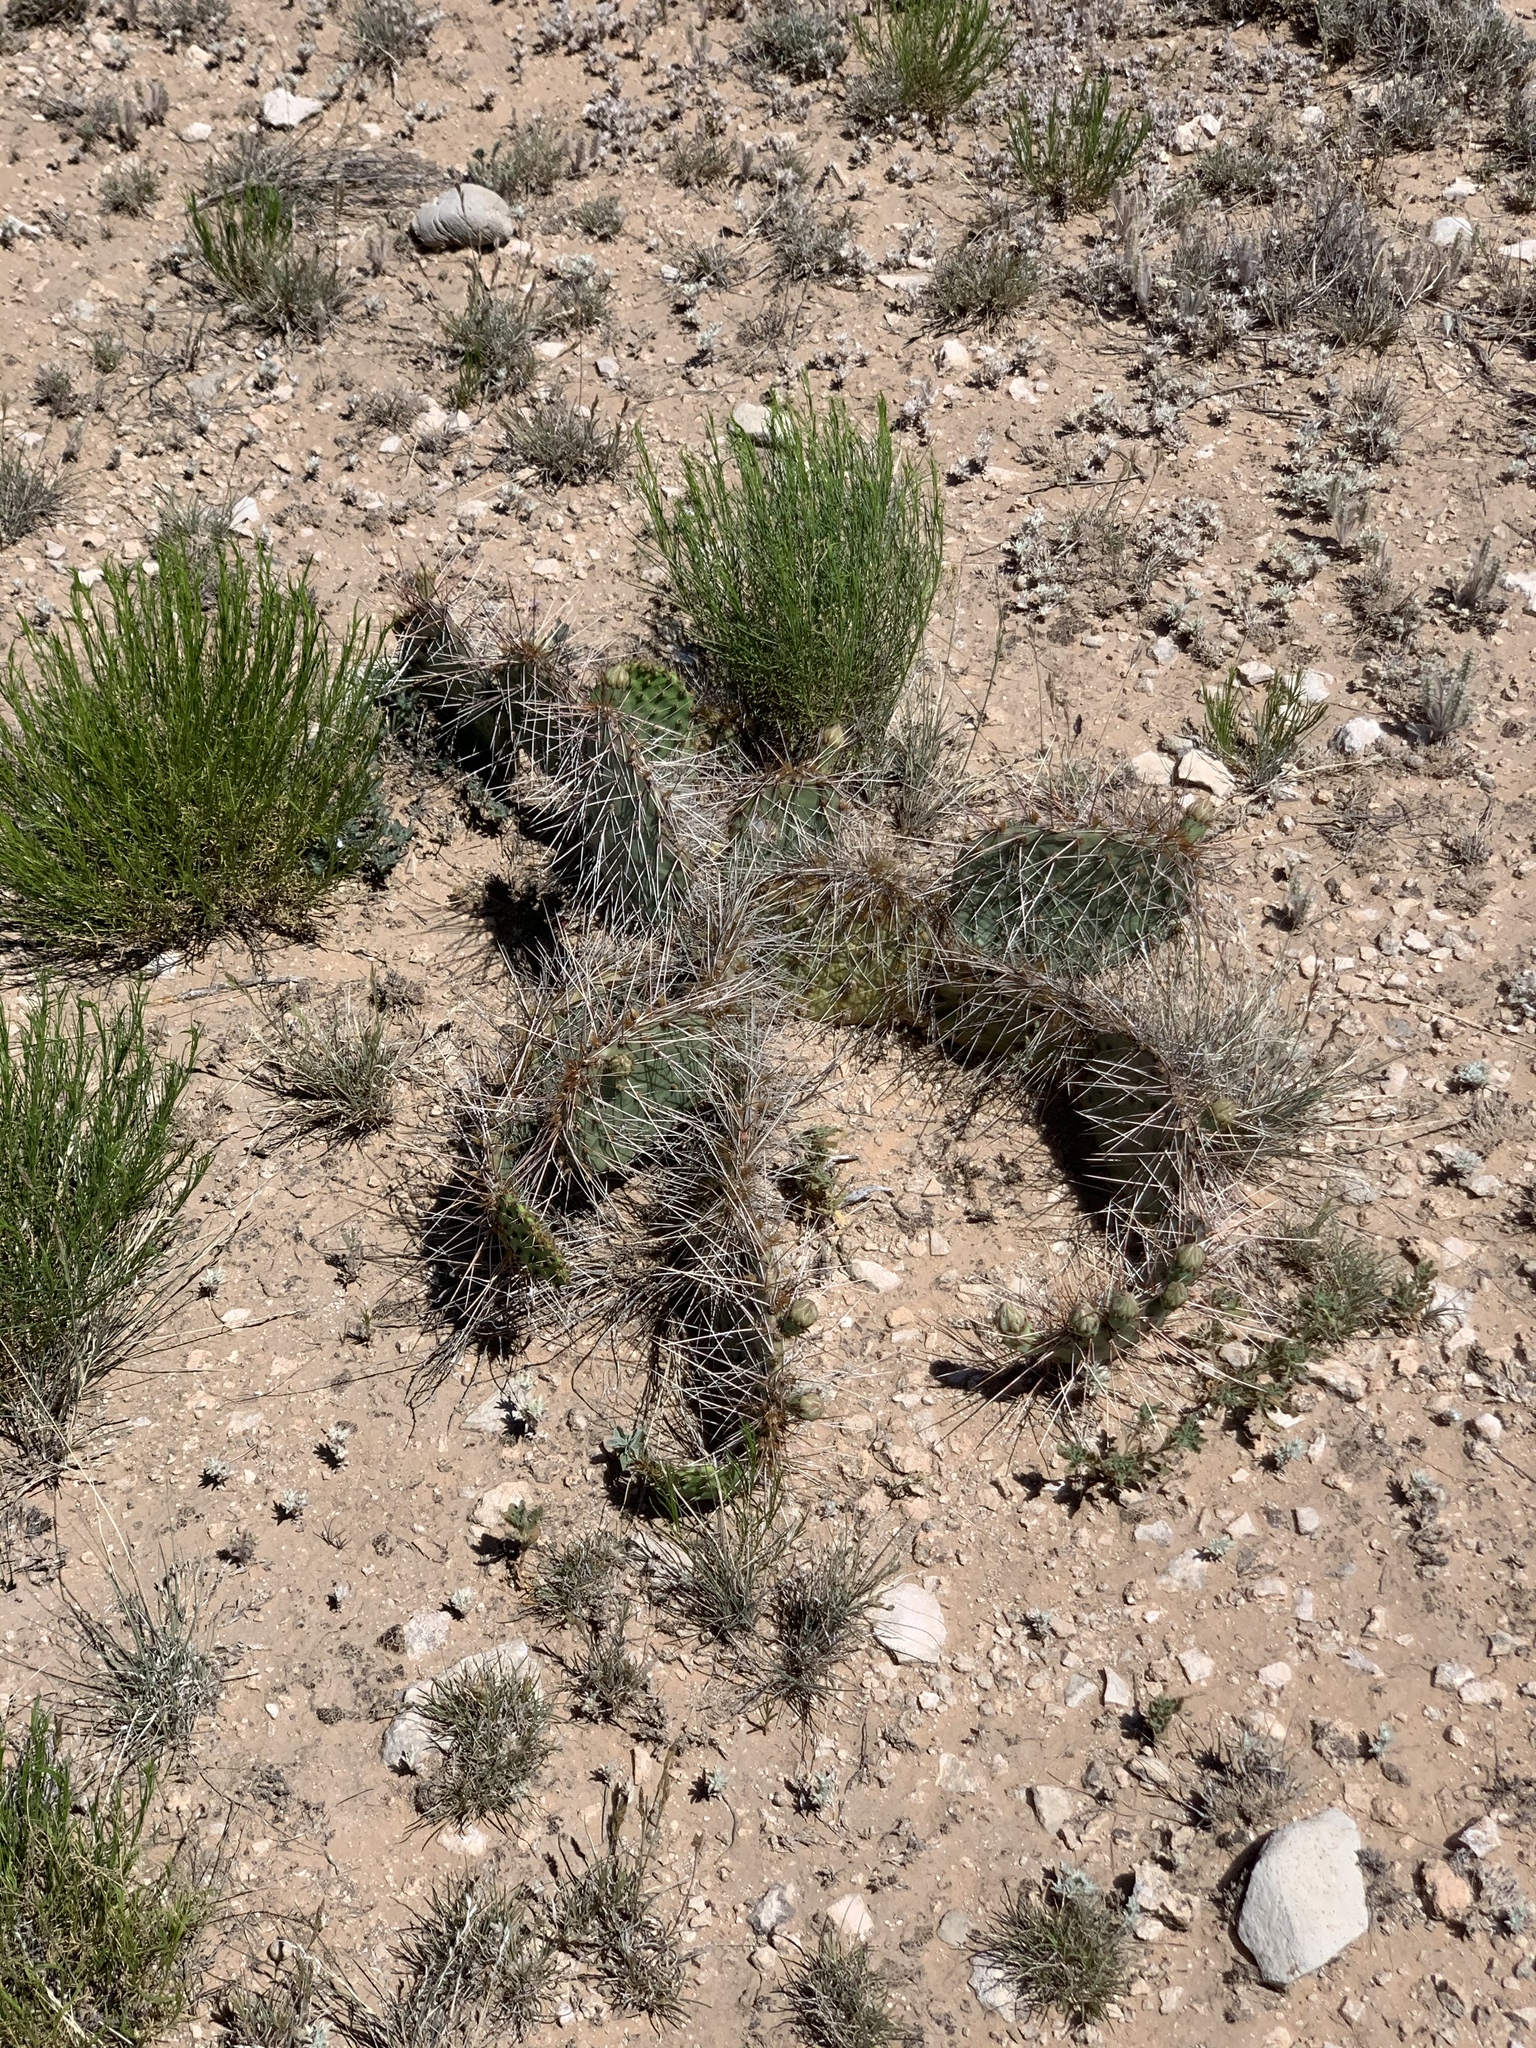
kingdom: Plantae
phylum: Tracheophyta
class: Magnoliopsida
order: Caryophyllales
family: Cactaceae
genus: Opuntia
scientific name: Opuntia macrorhiza
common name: Grassland pricklypear
